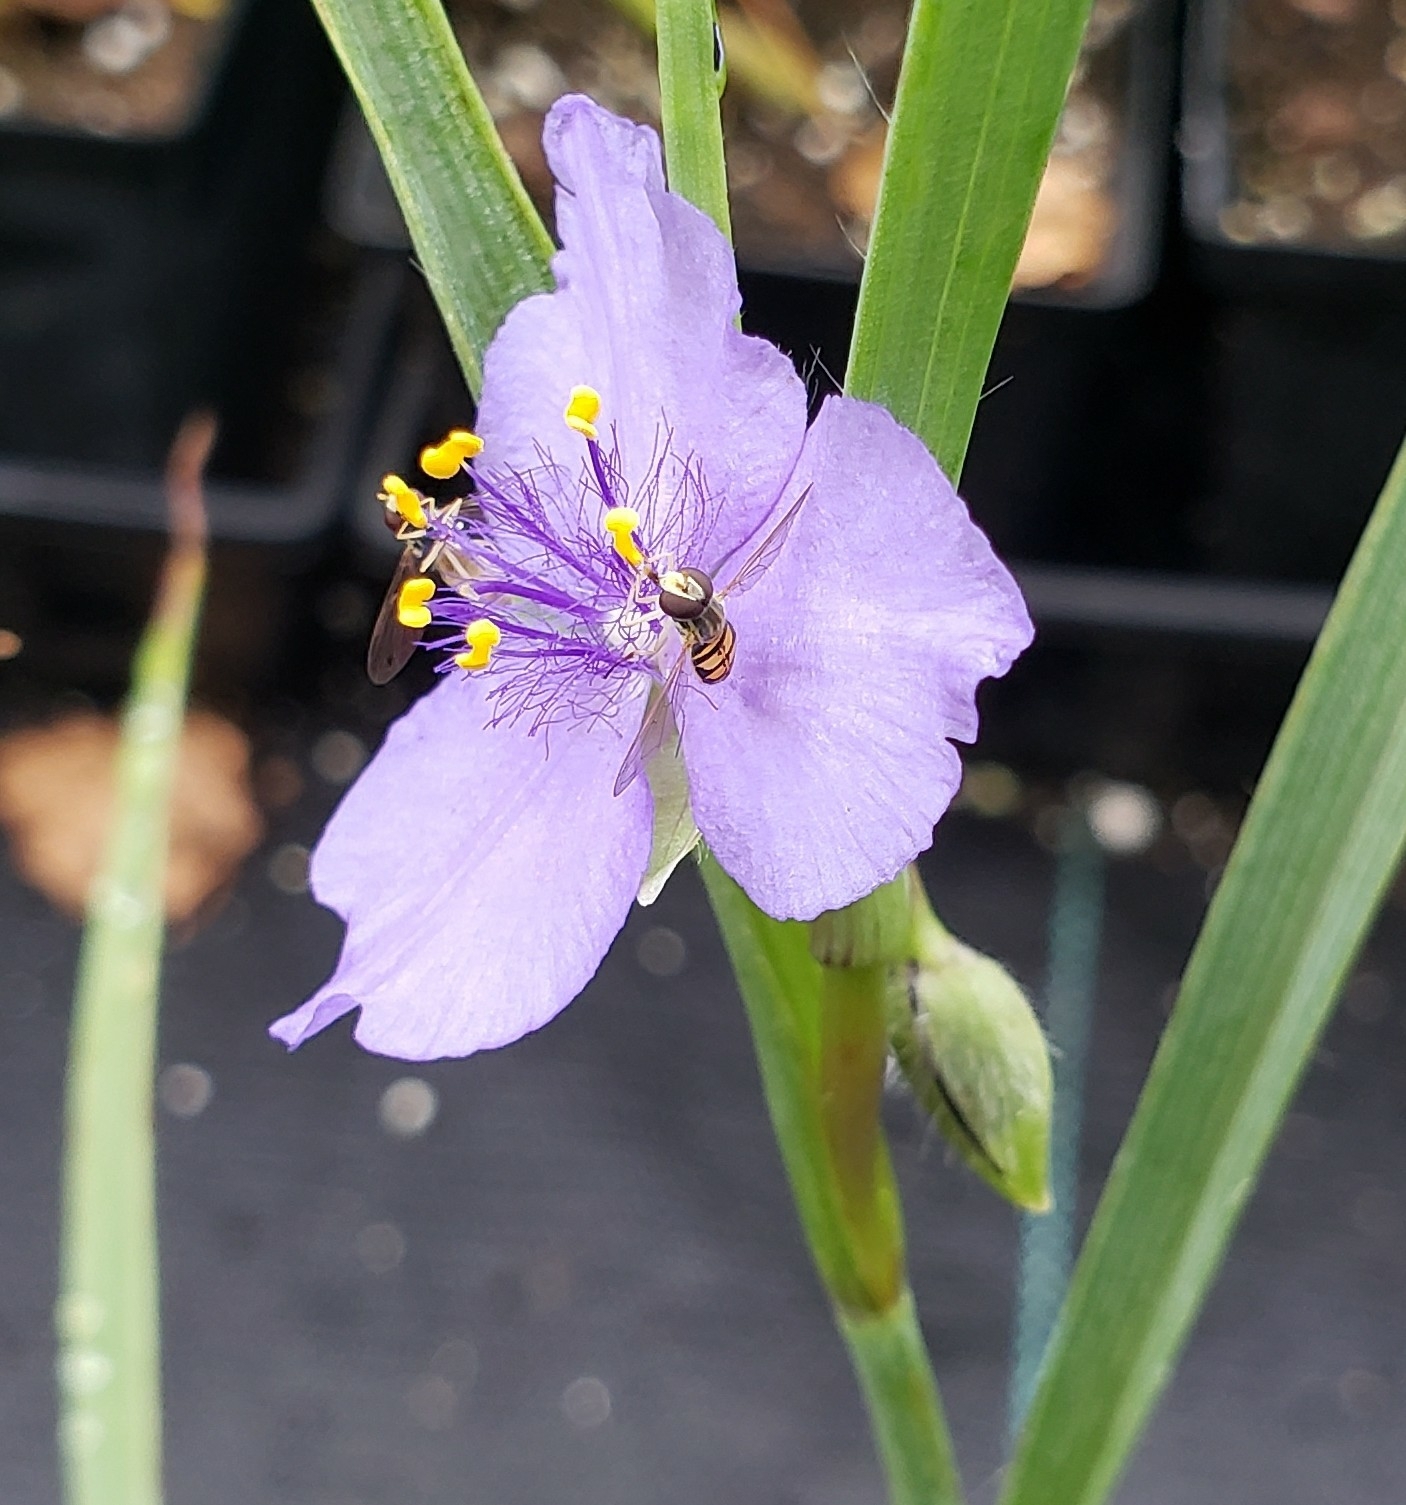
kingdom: Animalia
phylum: Arthropoda
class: Insecta
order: Diptera
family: Syrphidae
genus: Toxomerus
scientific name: Toxomerus marginatus
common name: Syrphid fly
